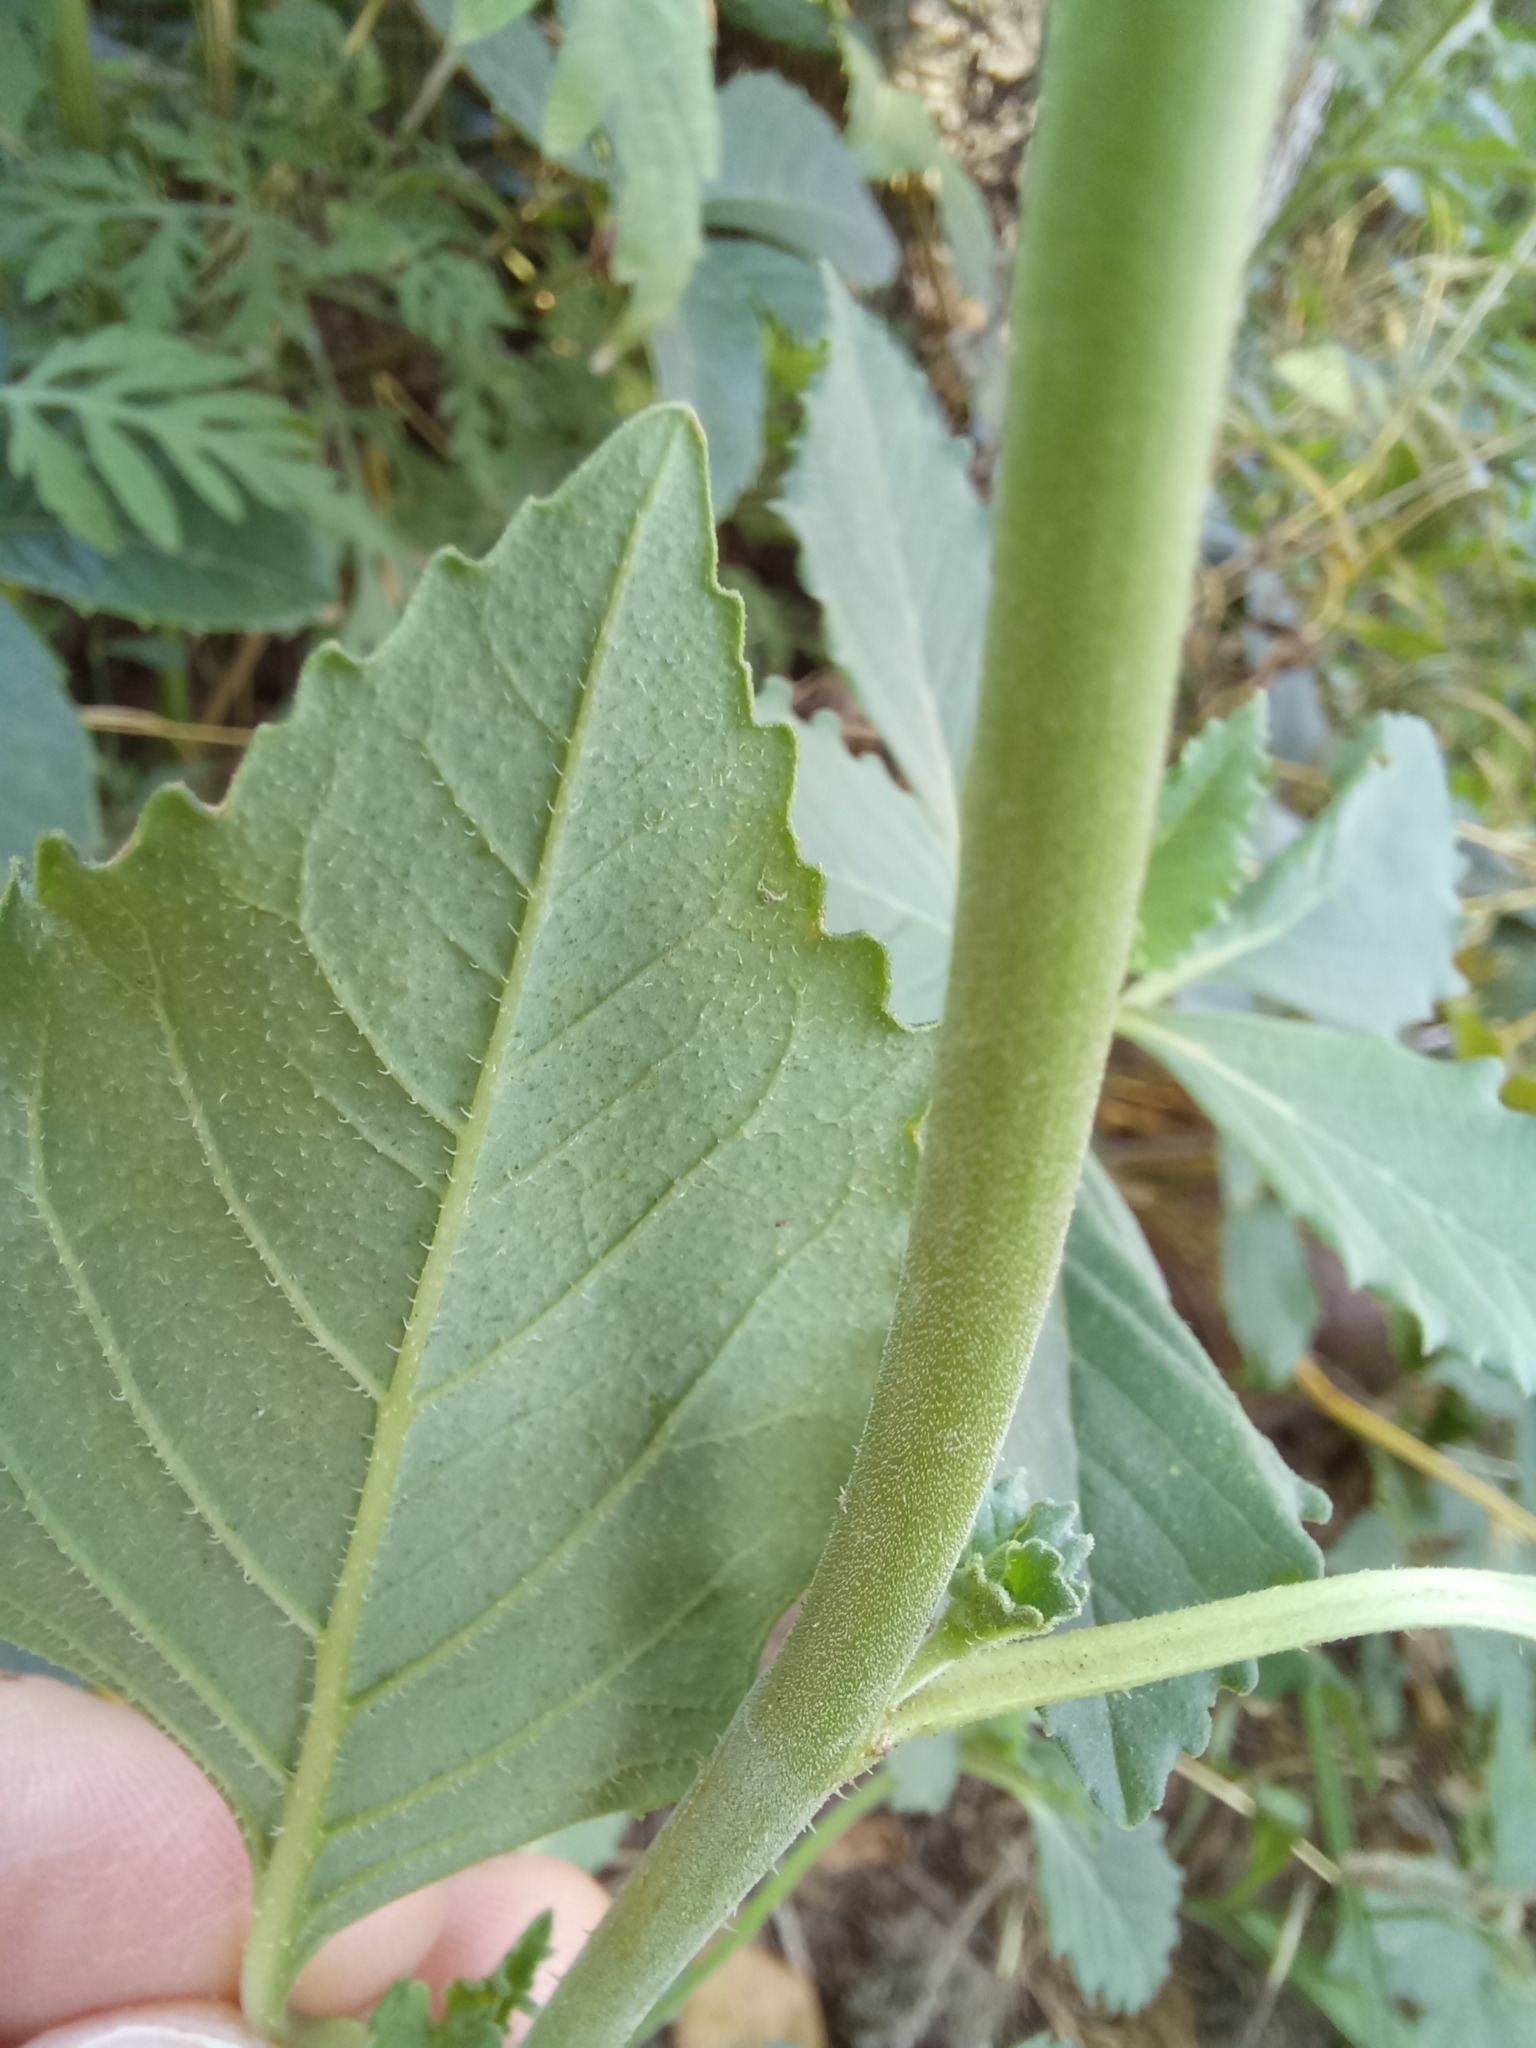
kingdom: Plantae
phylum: Tracheophyta
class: Magnoliopsida
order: Malpighiales
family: Euphorbiaceae
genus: Euphorbia
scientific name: Euphorbia davidii
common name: David's spurge
